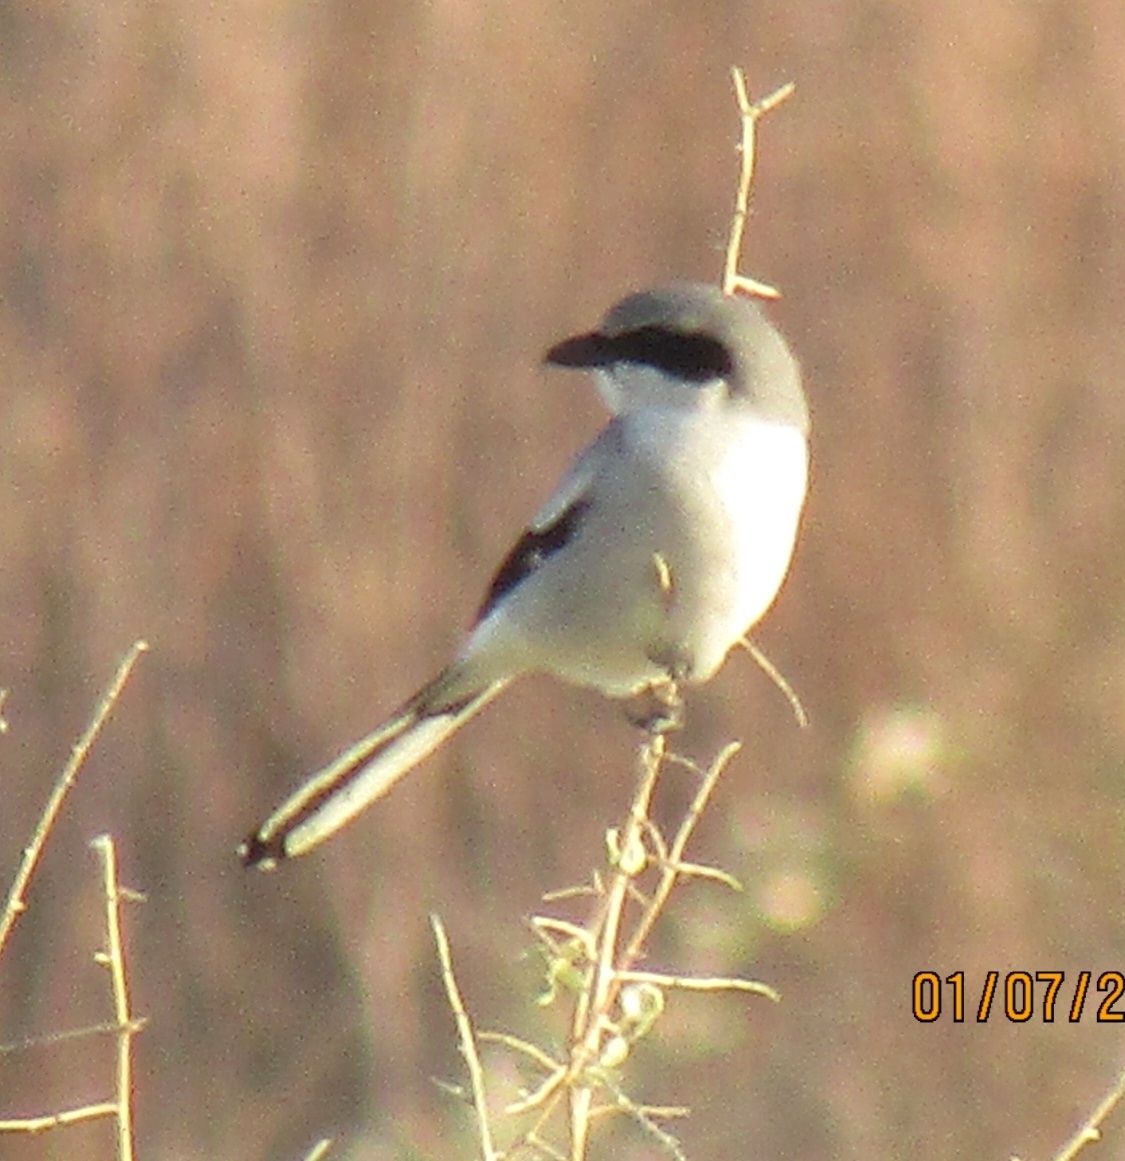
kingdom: Animalia
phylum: Chordata
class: Aves
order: Passeriformes
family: Laniidae
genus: Lanius
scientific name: Lanius ludovicianus
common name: Loggerhead shrike
